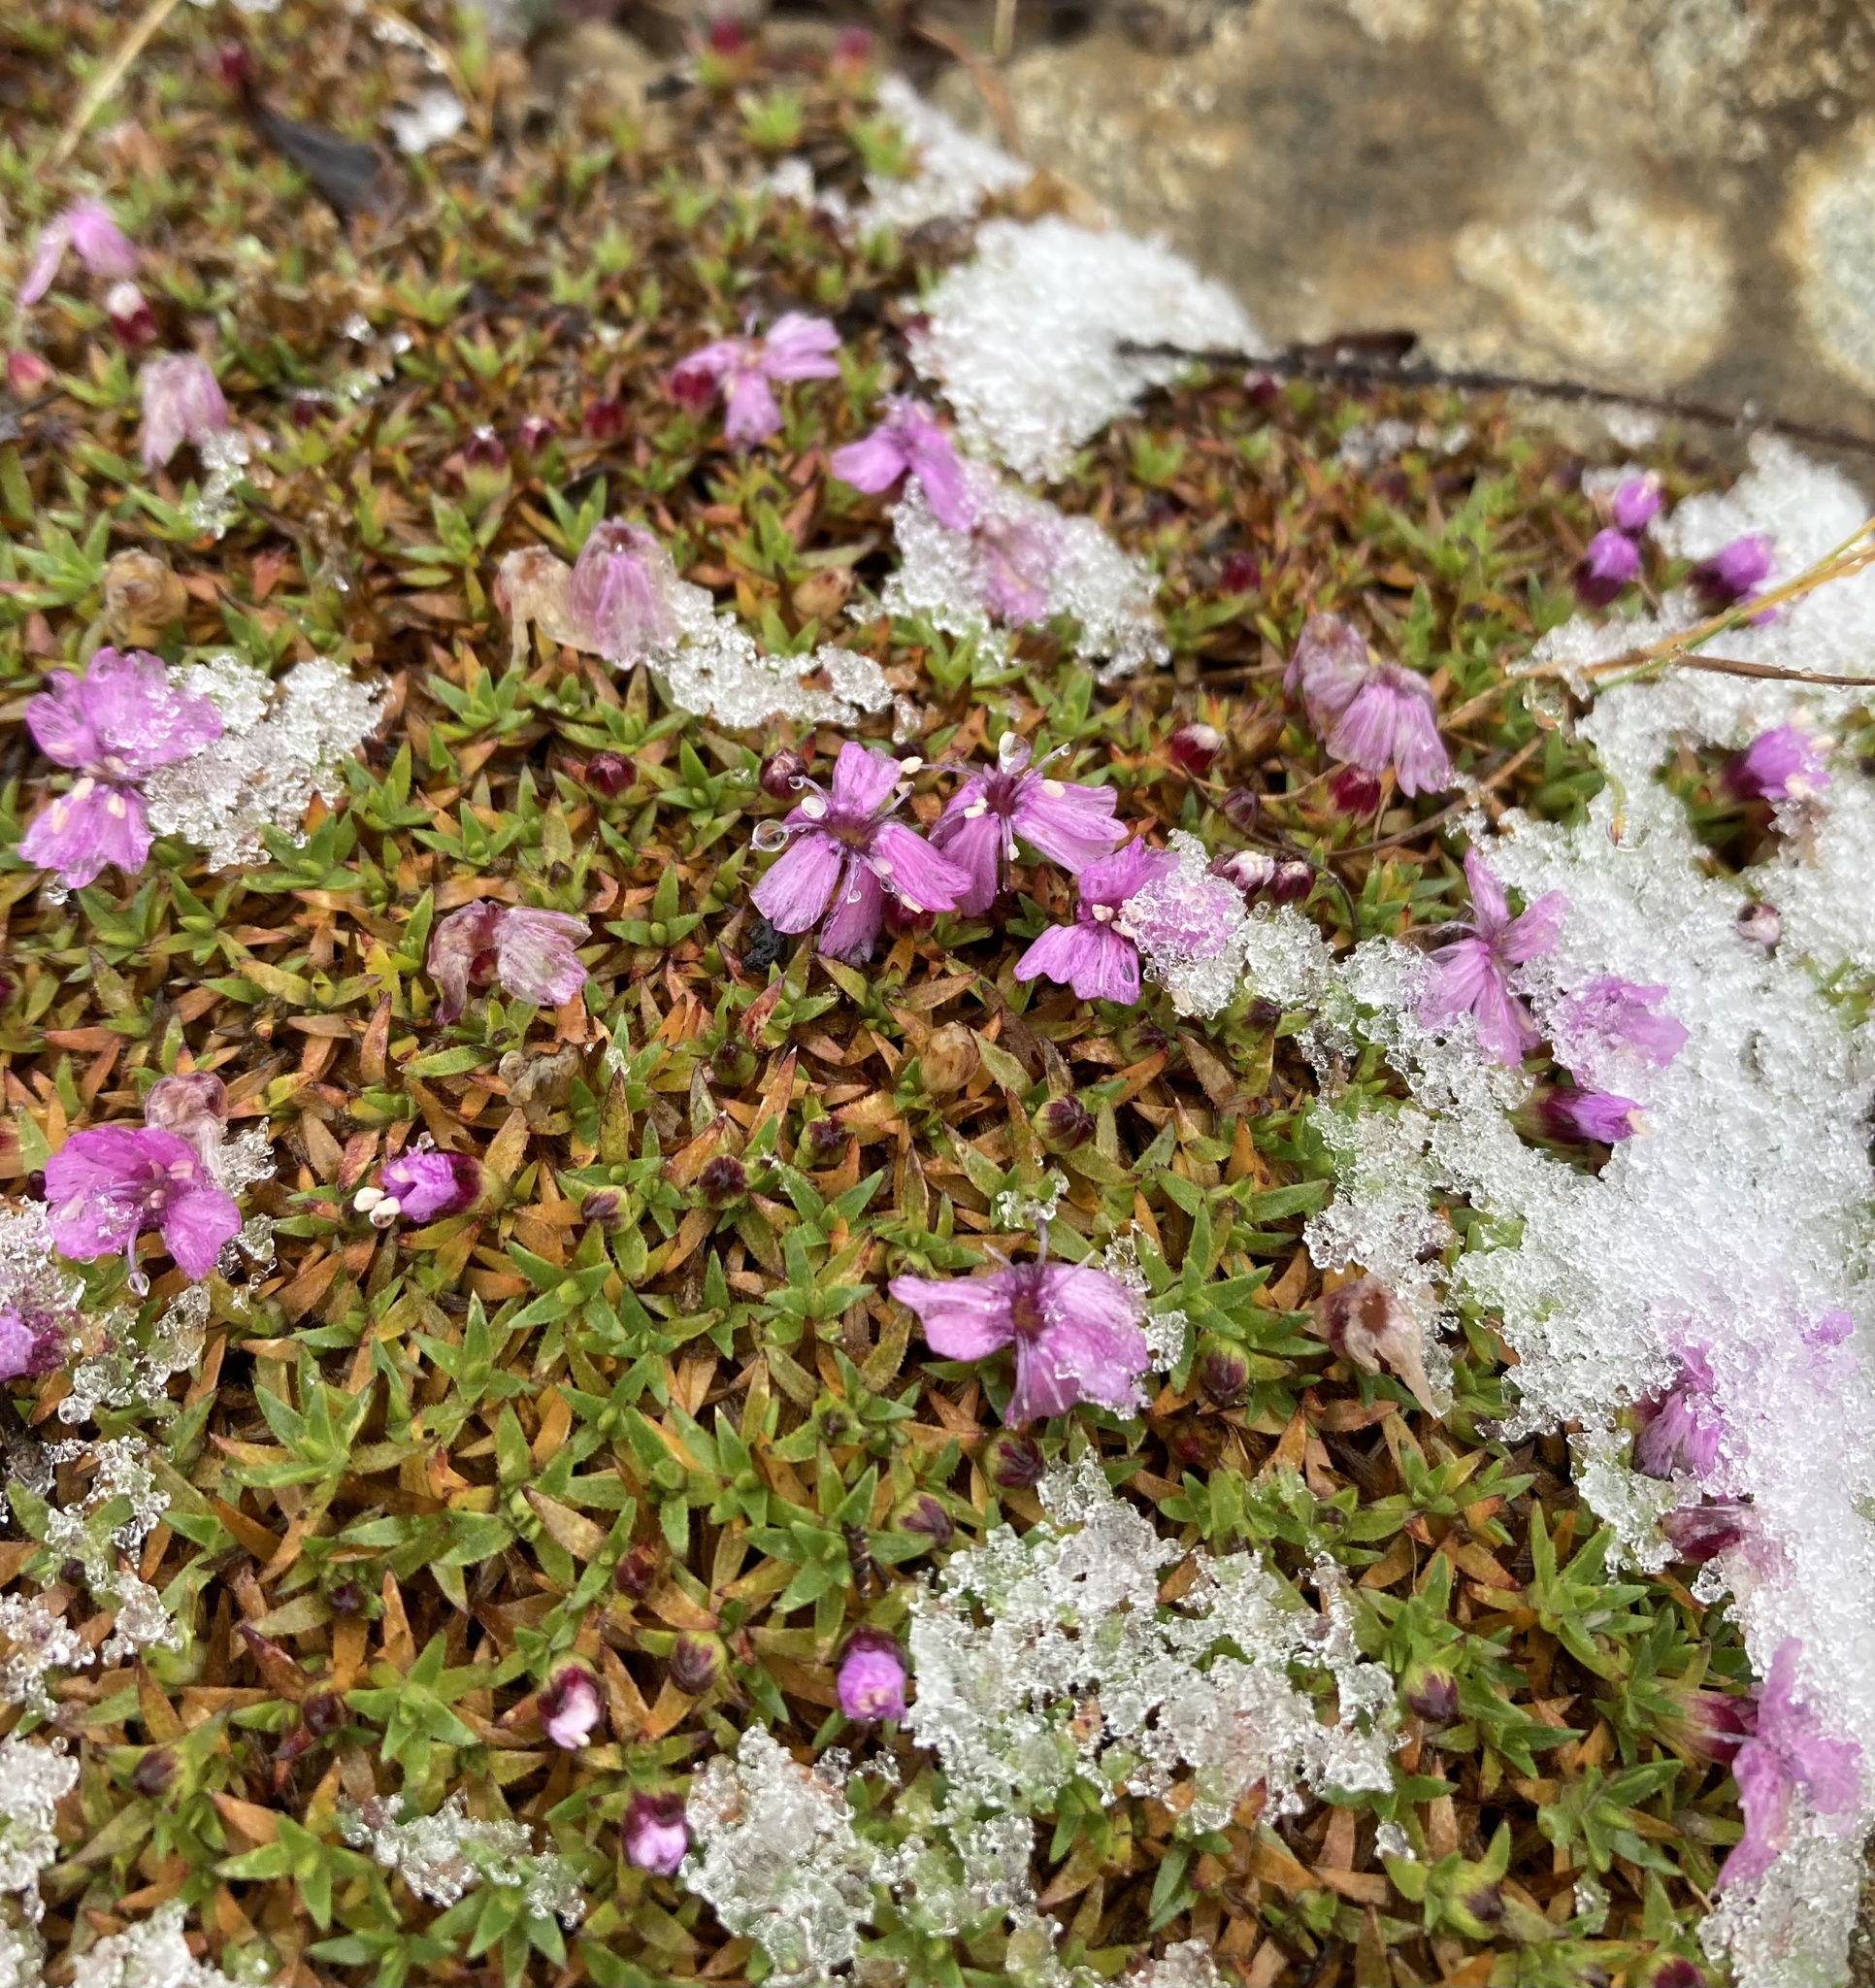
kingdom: Plantae
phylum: Tracheophyta
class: Magnoliopsida
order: Caryophyllales
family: Caryophyllaceae
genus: Silene
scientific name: Silene acaulis
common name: Moss campion
